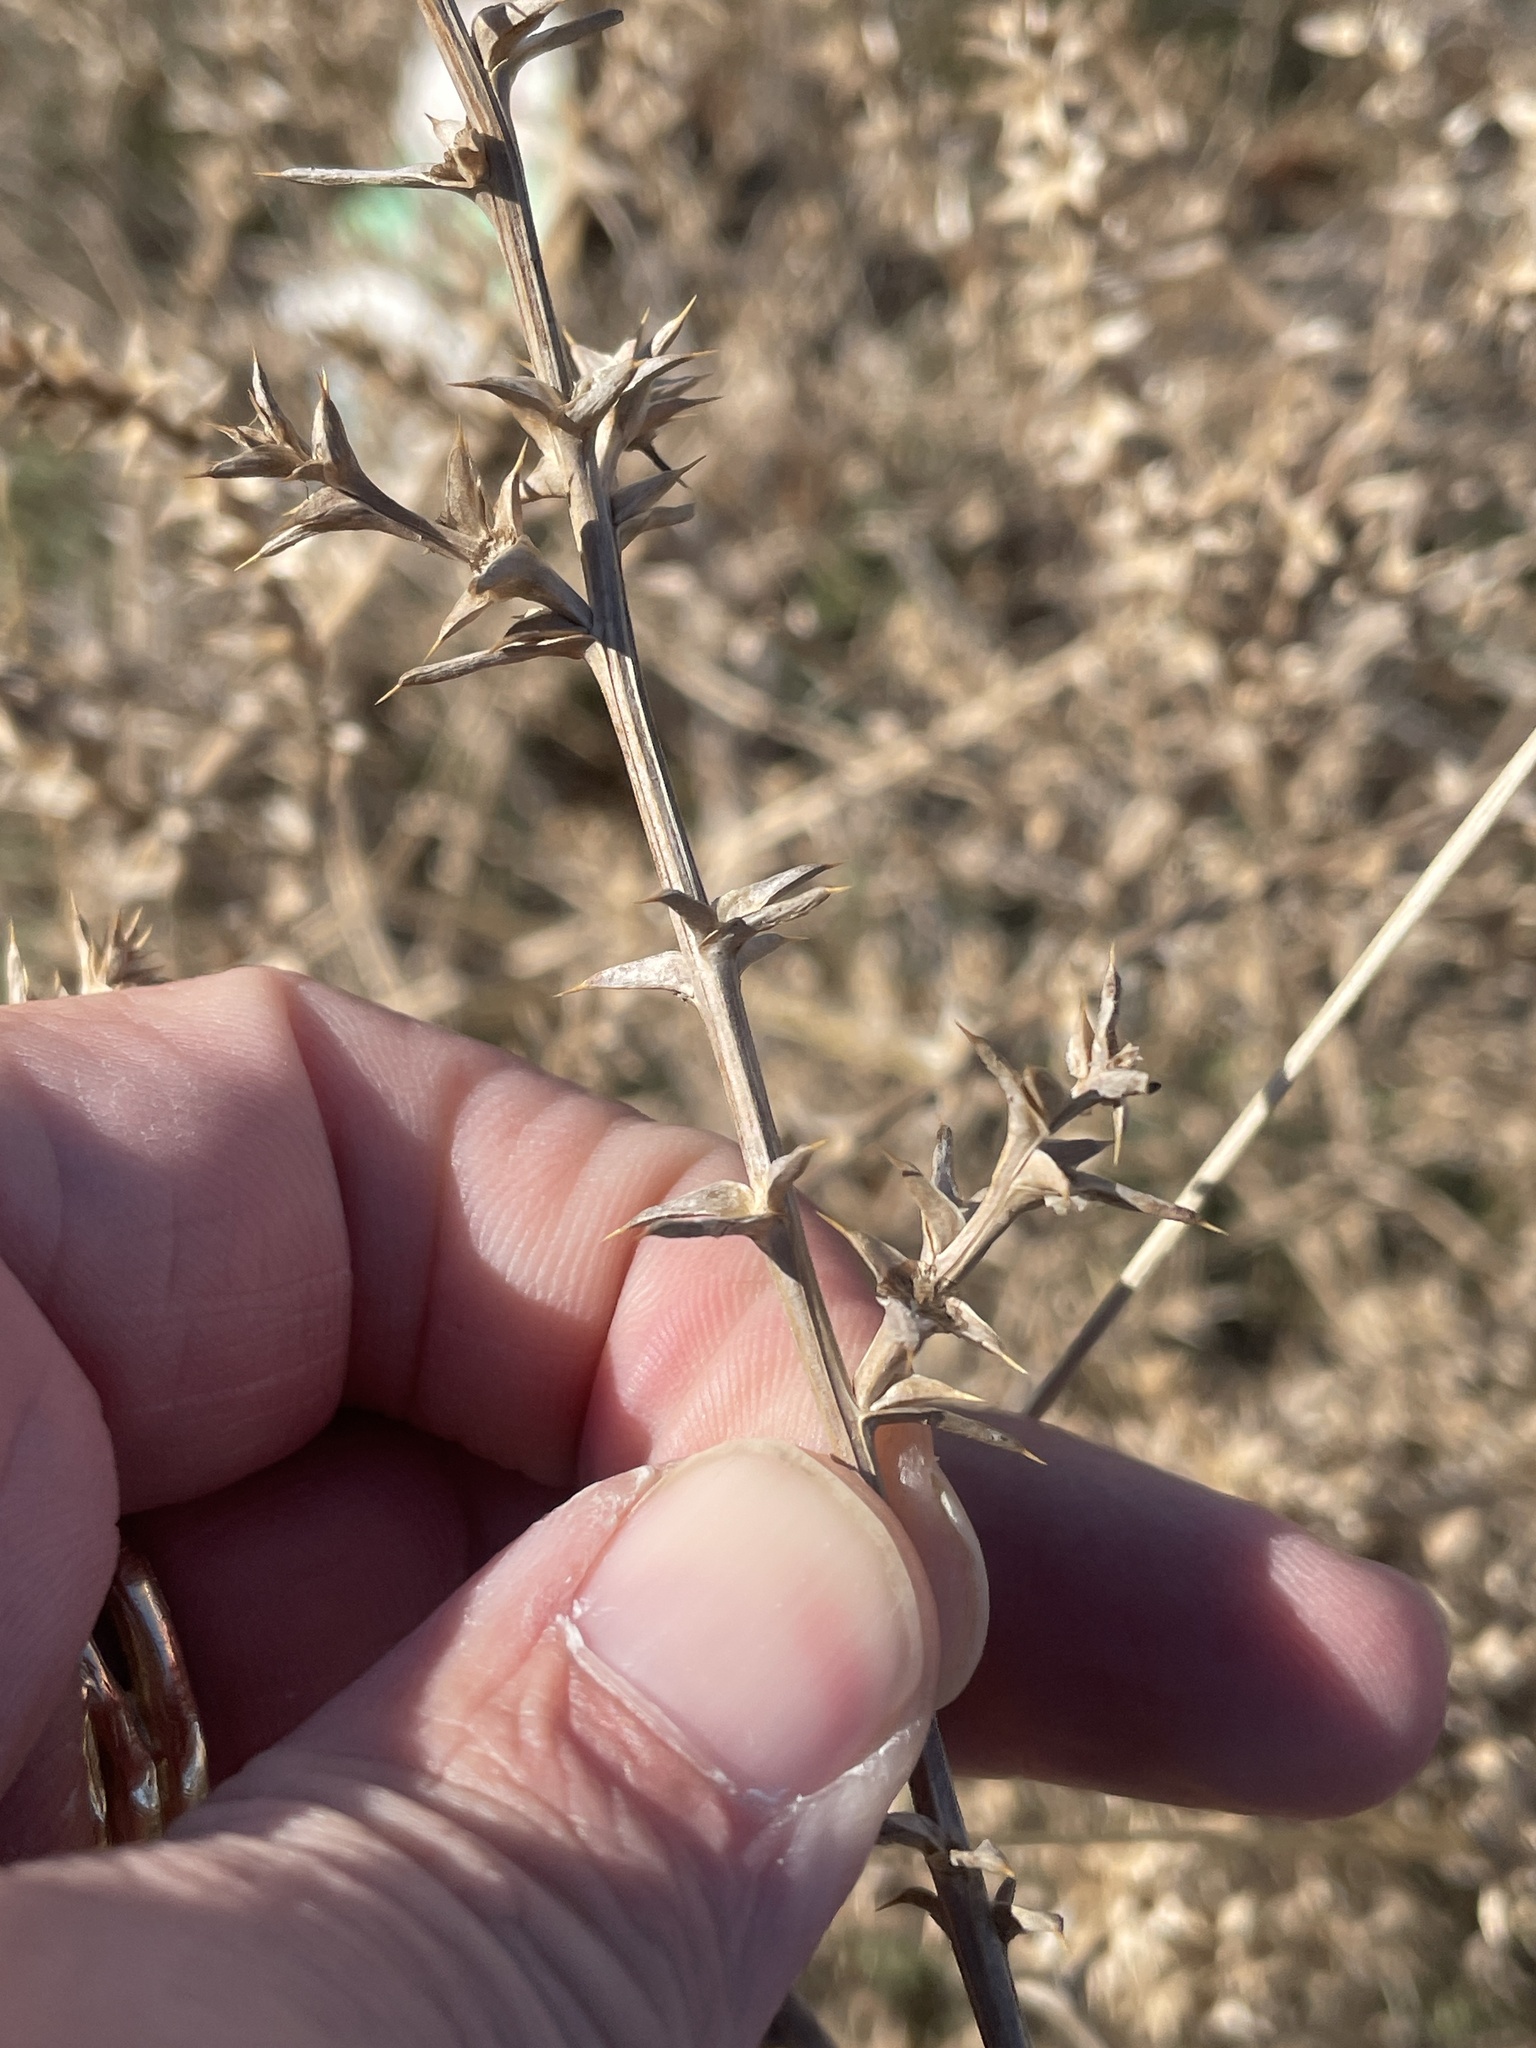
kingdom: Plantae
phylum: Tracheophyta
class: Magnoliopsida
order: Caryophyllales
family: Amaranthaceae
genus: Salsola
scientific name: Salsola tragus
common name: Prickly russian thistle
